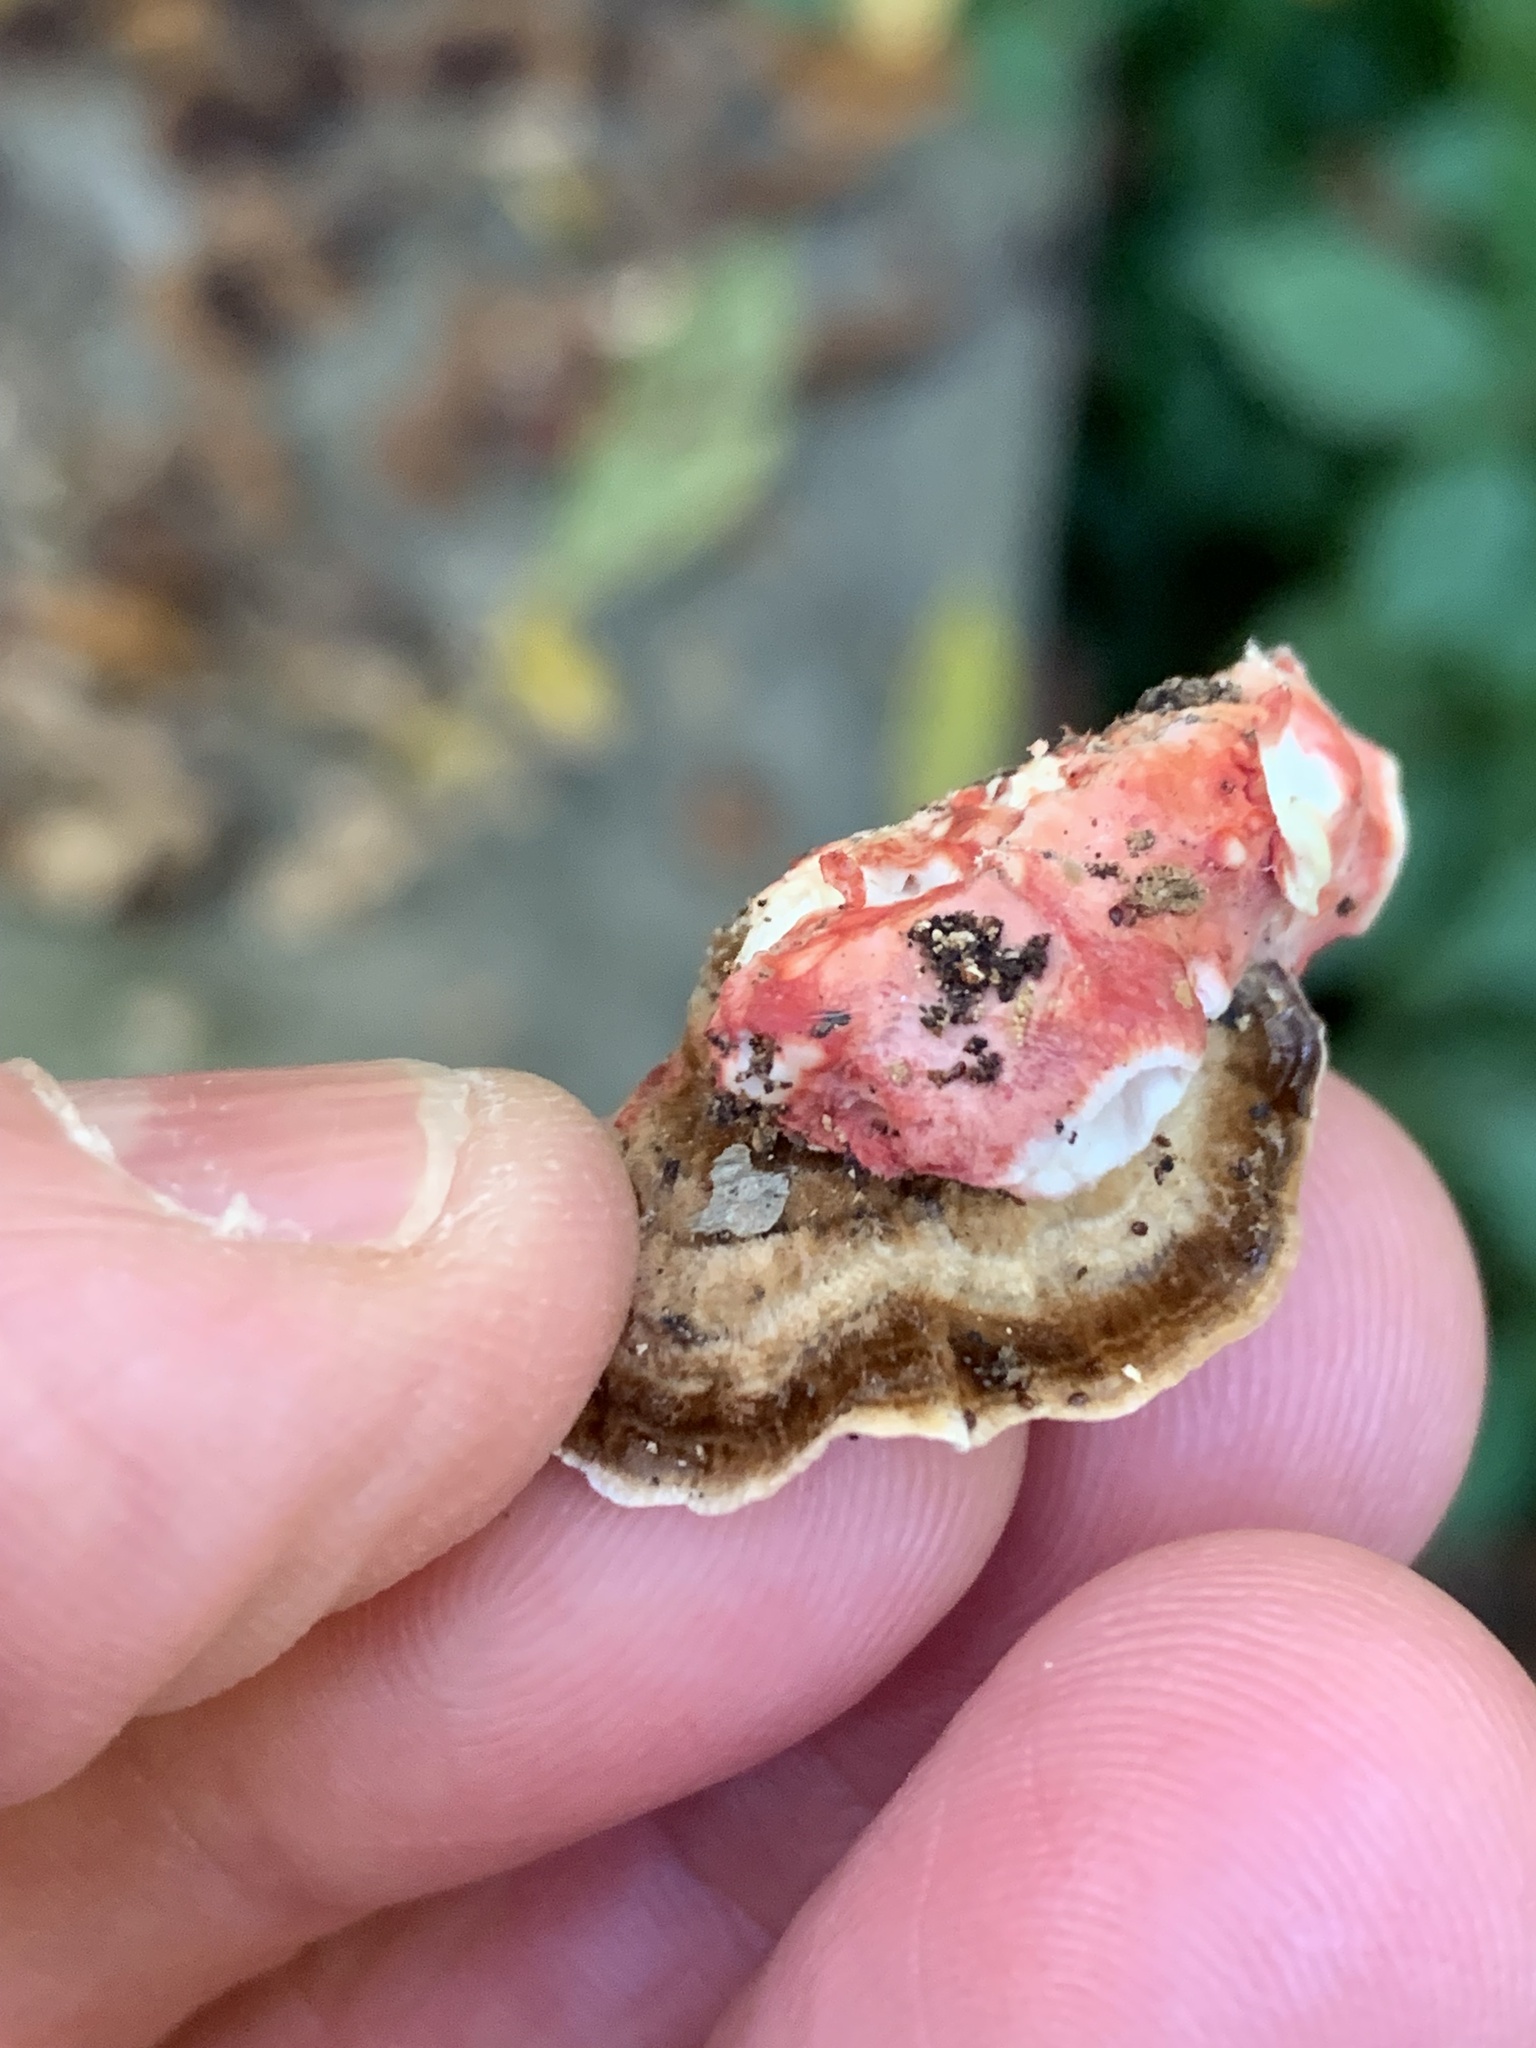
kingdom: Fungi
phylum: Basidiomycota
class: Agaricomycetes
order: Polyporales
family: Irpicaceae
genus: Byssomerulius
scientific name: Byssomerulius incarnatus
